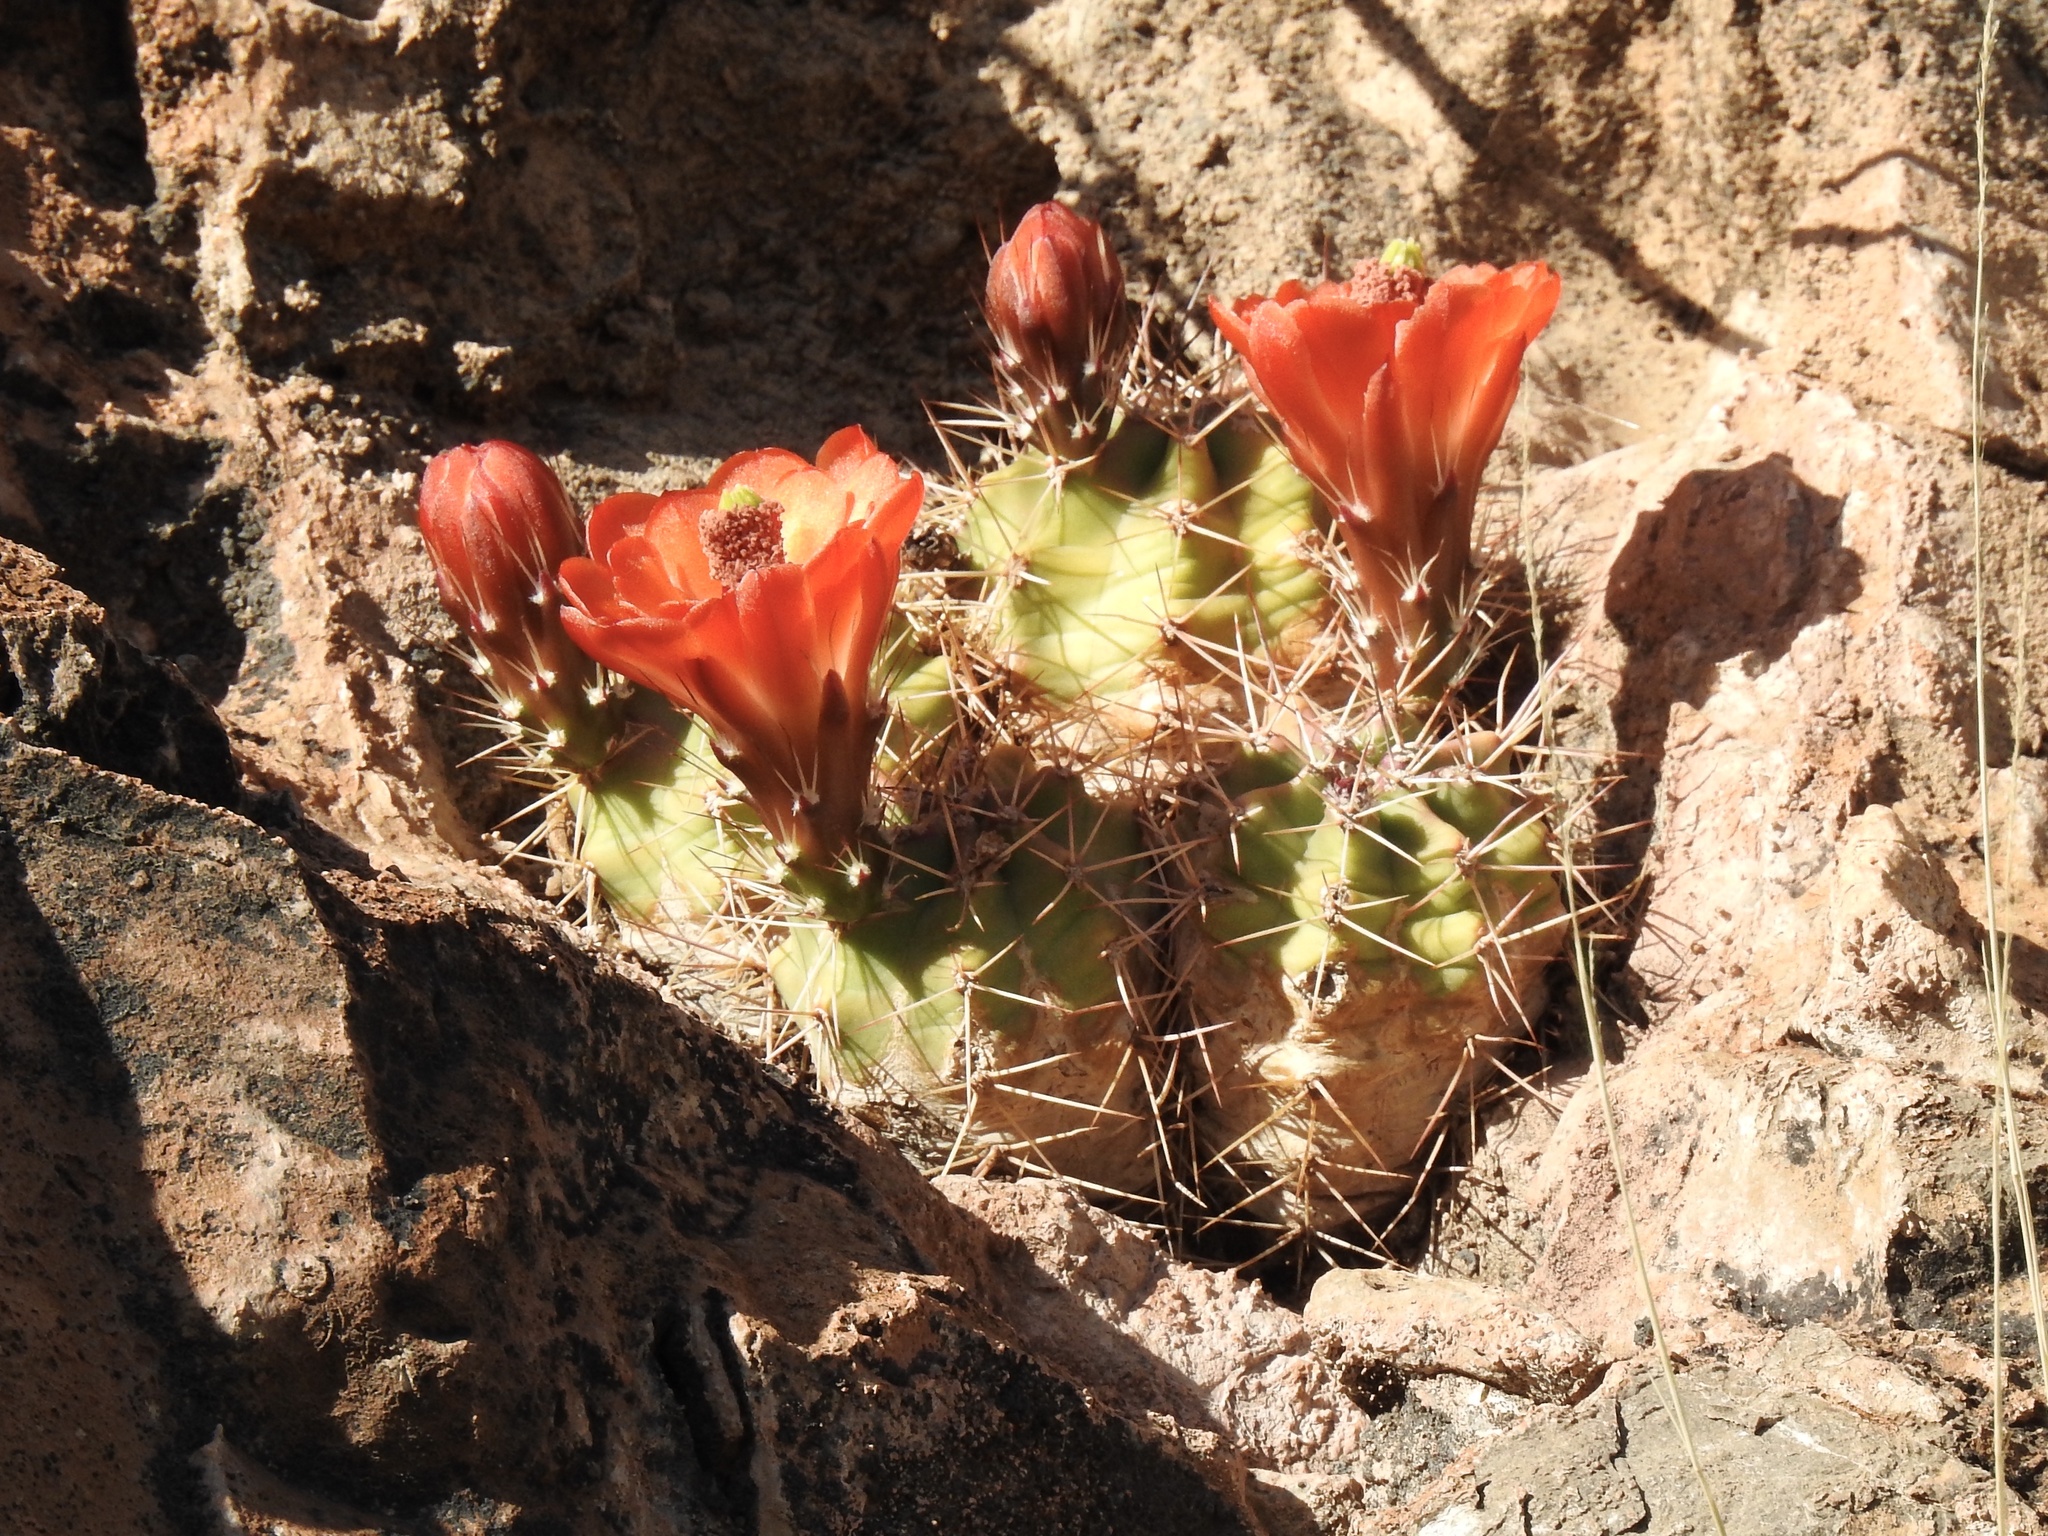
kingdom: Plantae
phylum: Tracheophyta
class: Magnoliopsida
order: Caryophyllales
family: Cactaceae
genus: Echinocereus
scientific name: Echinocereus coccineus
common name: Scarlet hedgehog cactus
